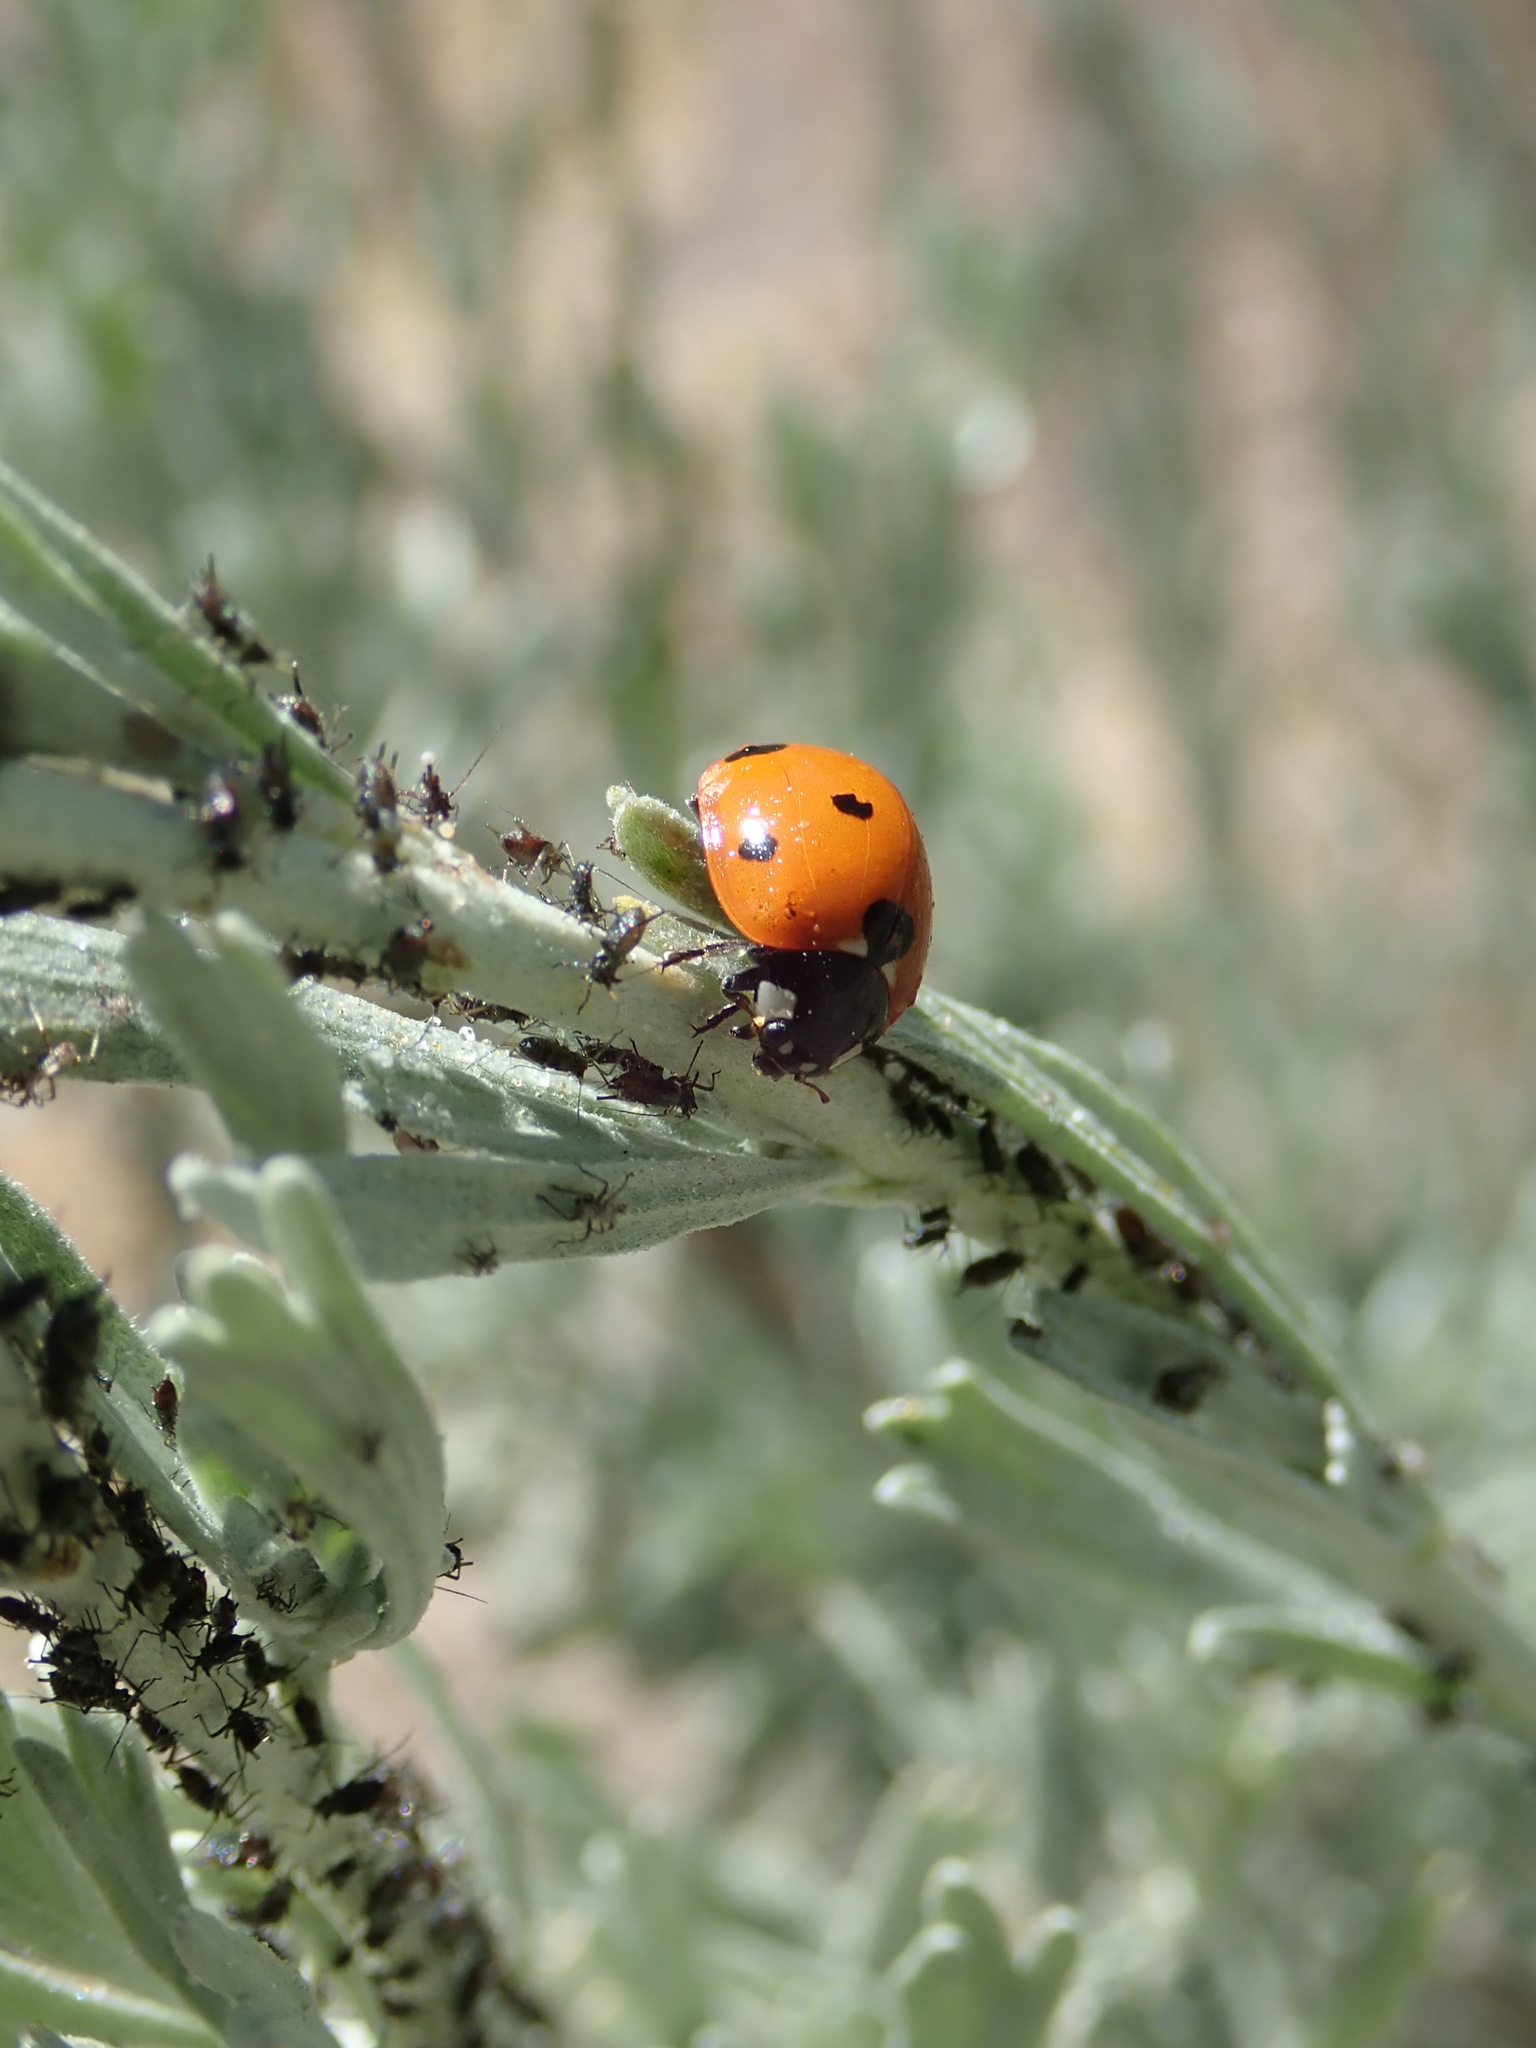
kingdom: Animalia
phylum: Arthropoda
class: Insecta
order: Coleoptera
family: Coccinellidae
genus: Coccinella
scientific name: Coccinella septempunctata
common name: Sevenspotted lady beetle
